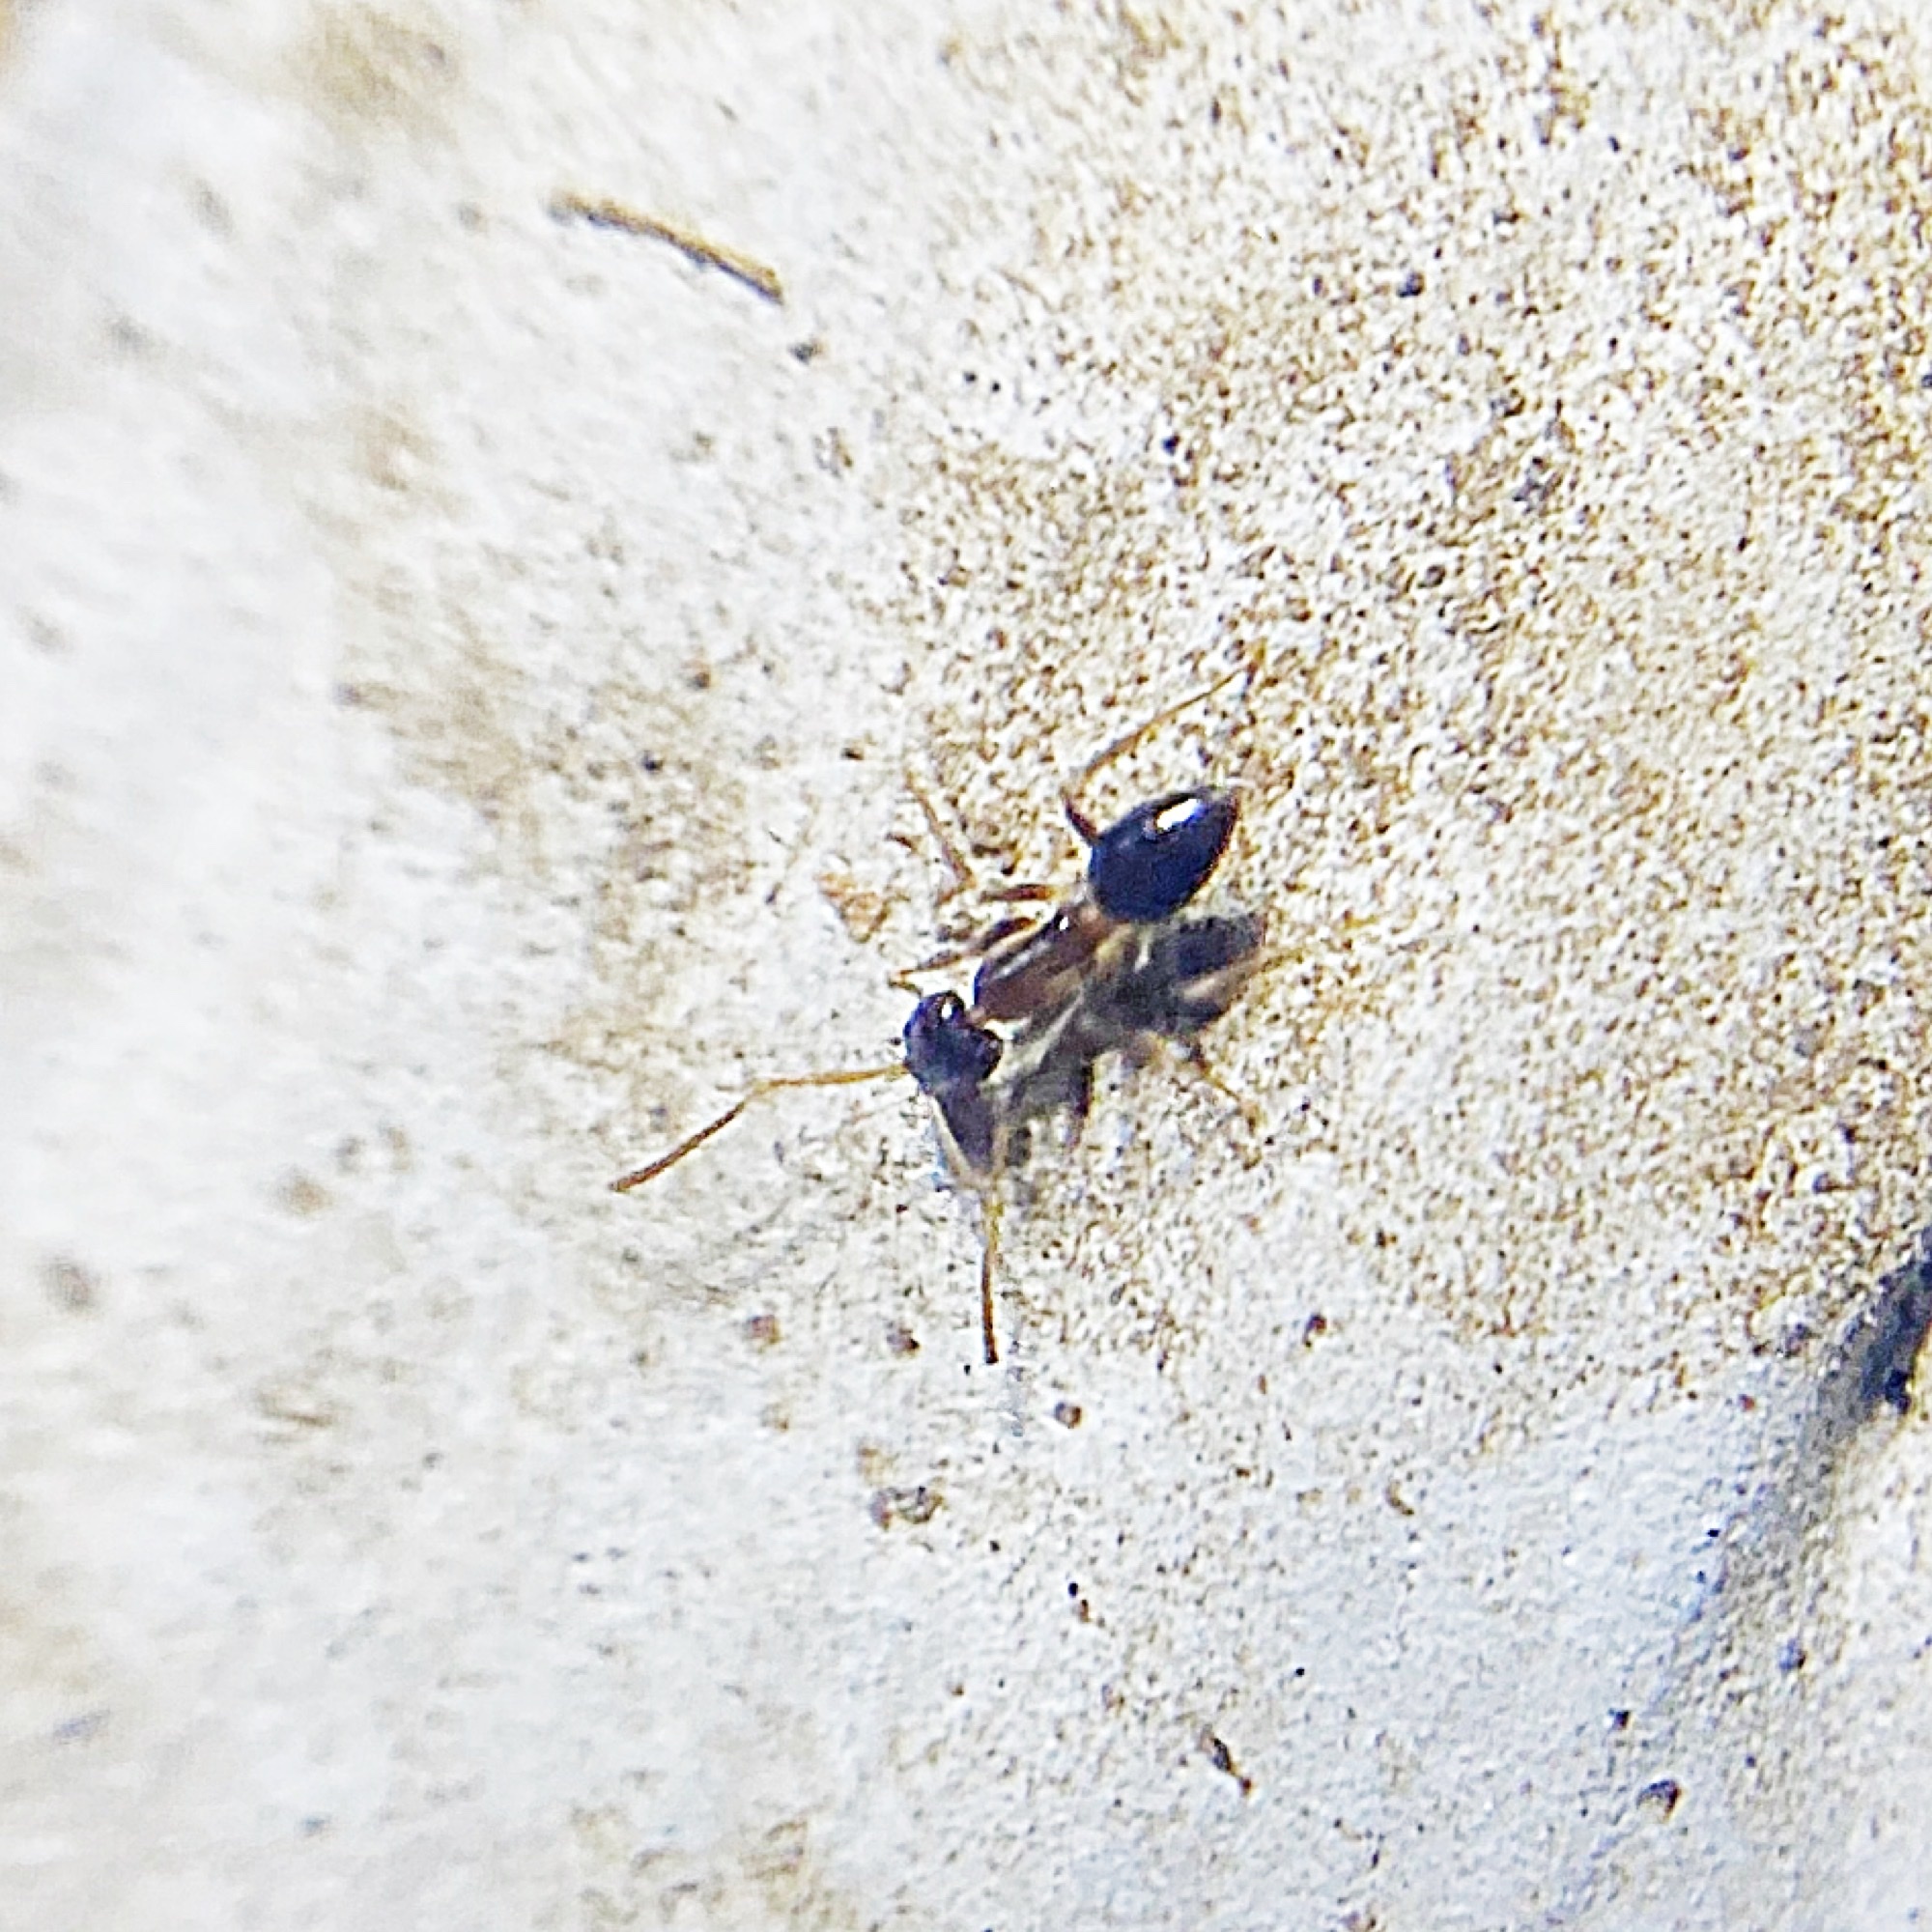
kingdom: Animalia
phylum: Arthropoda
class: Insecta
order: Hymenoptera
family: Formicidae
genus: Nylanderia
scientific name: Nylanderia faisonensis
